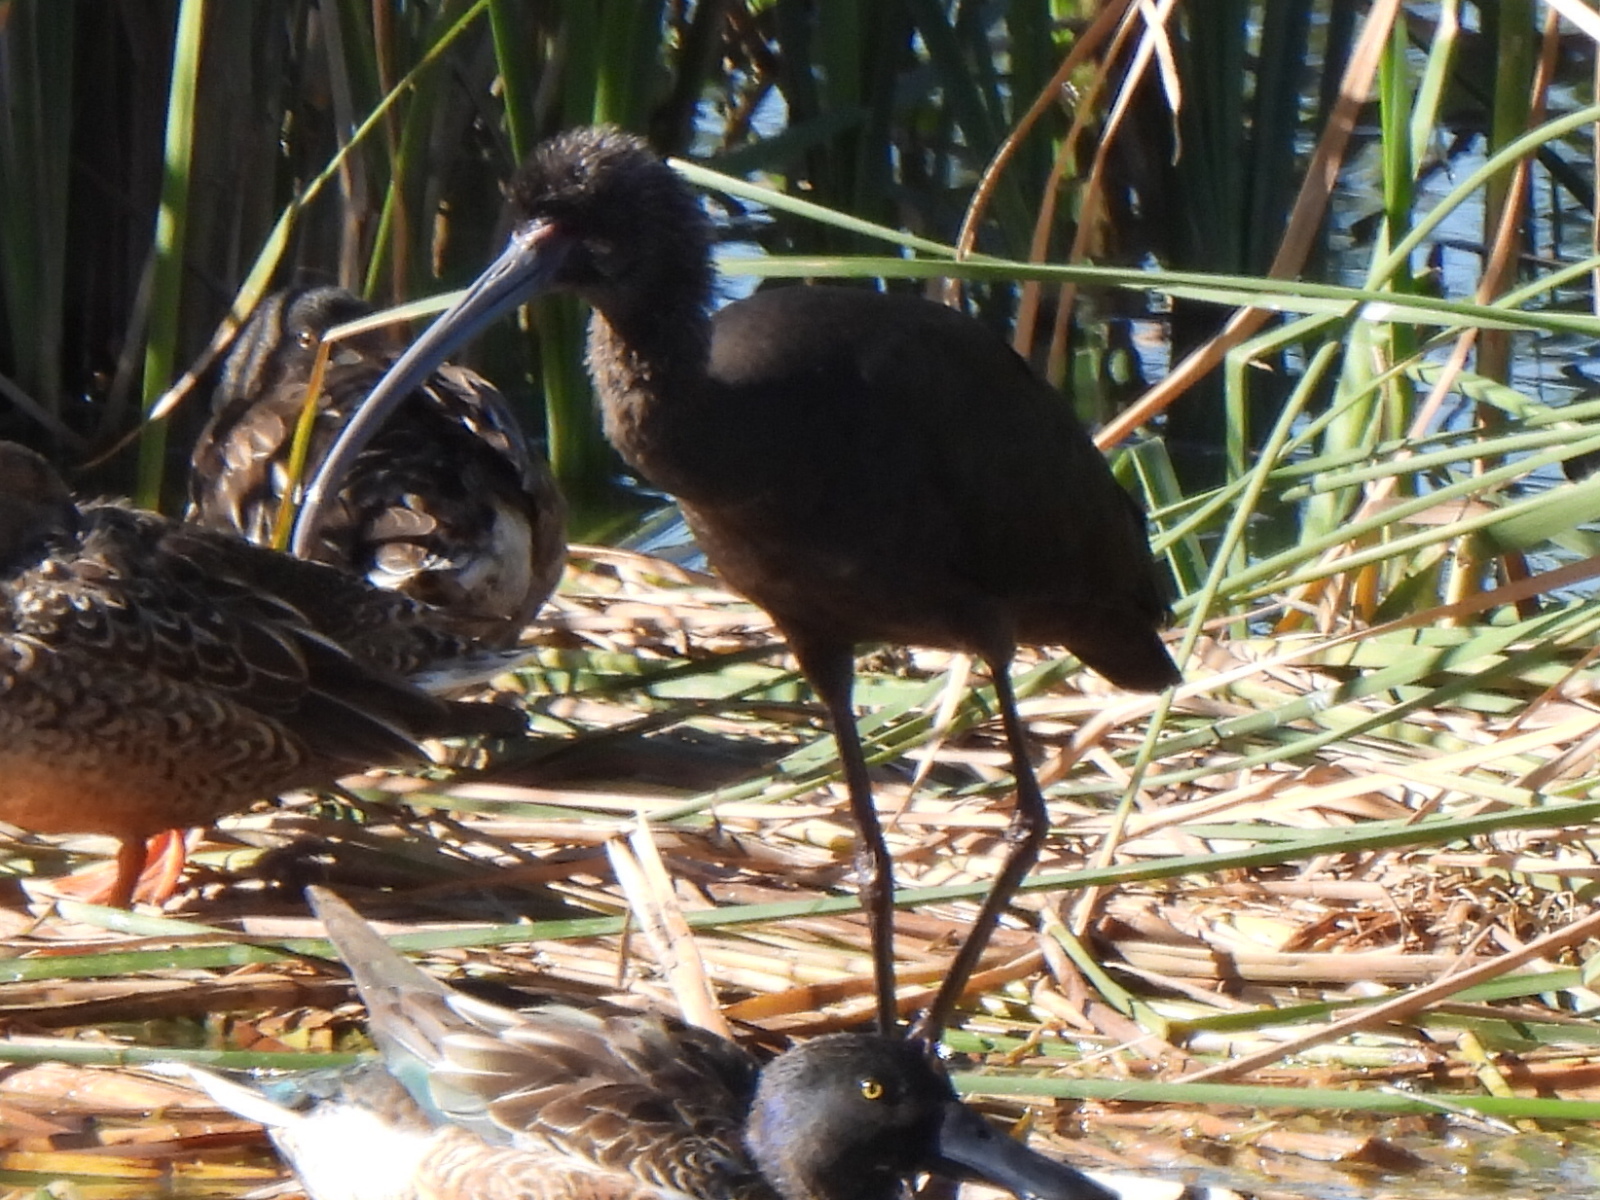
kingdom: Animalia
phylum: Chordata
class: Aves
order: Pelecaniformes
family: Threskiornithidae
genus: Plegadis
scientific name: Plegadis chihi
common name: White-faced ibis
